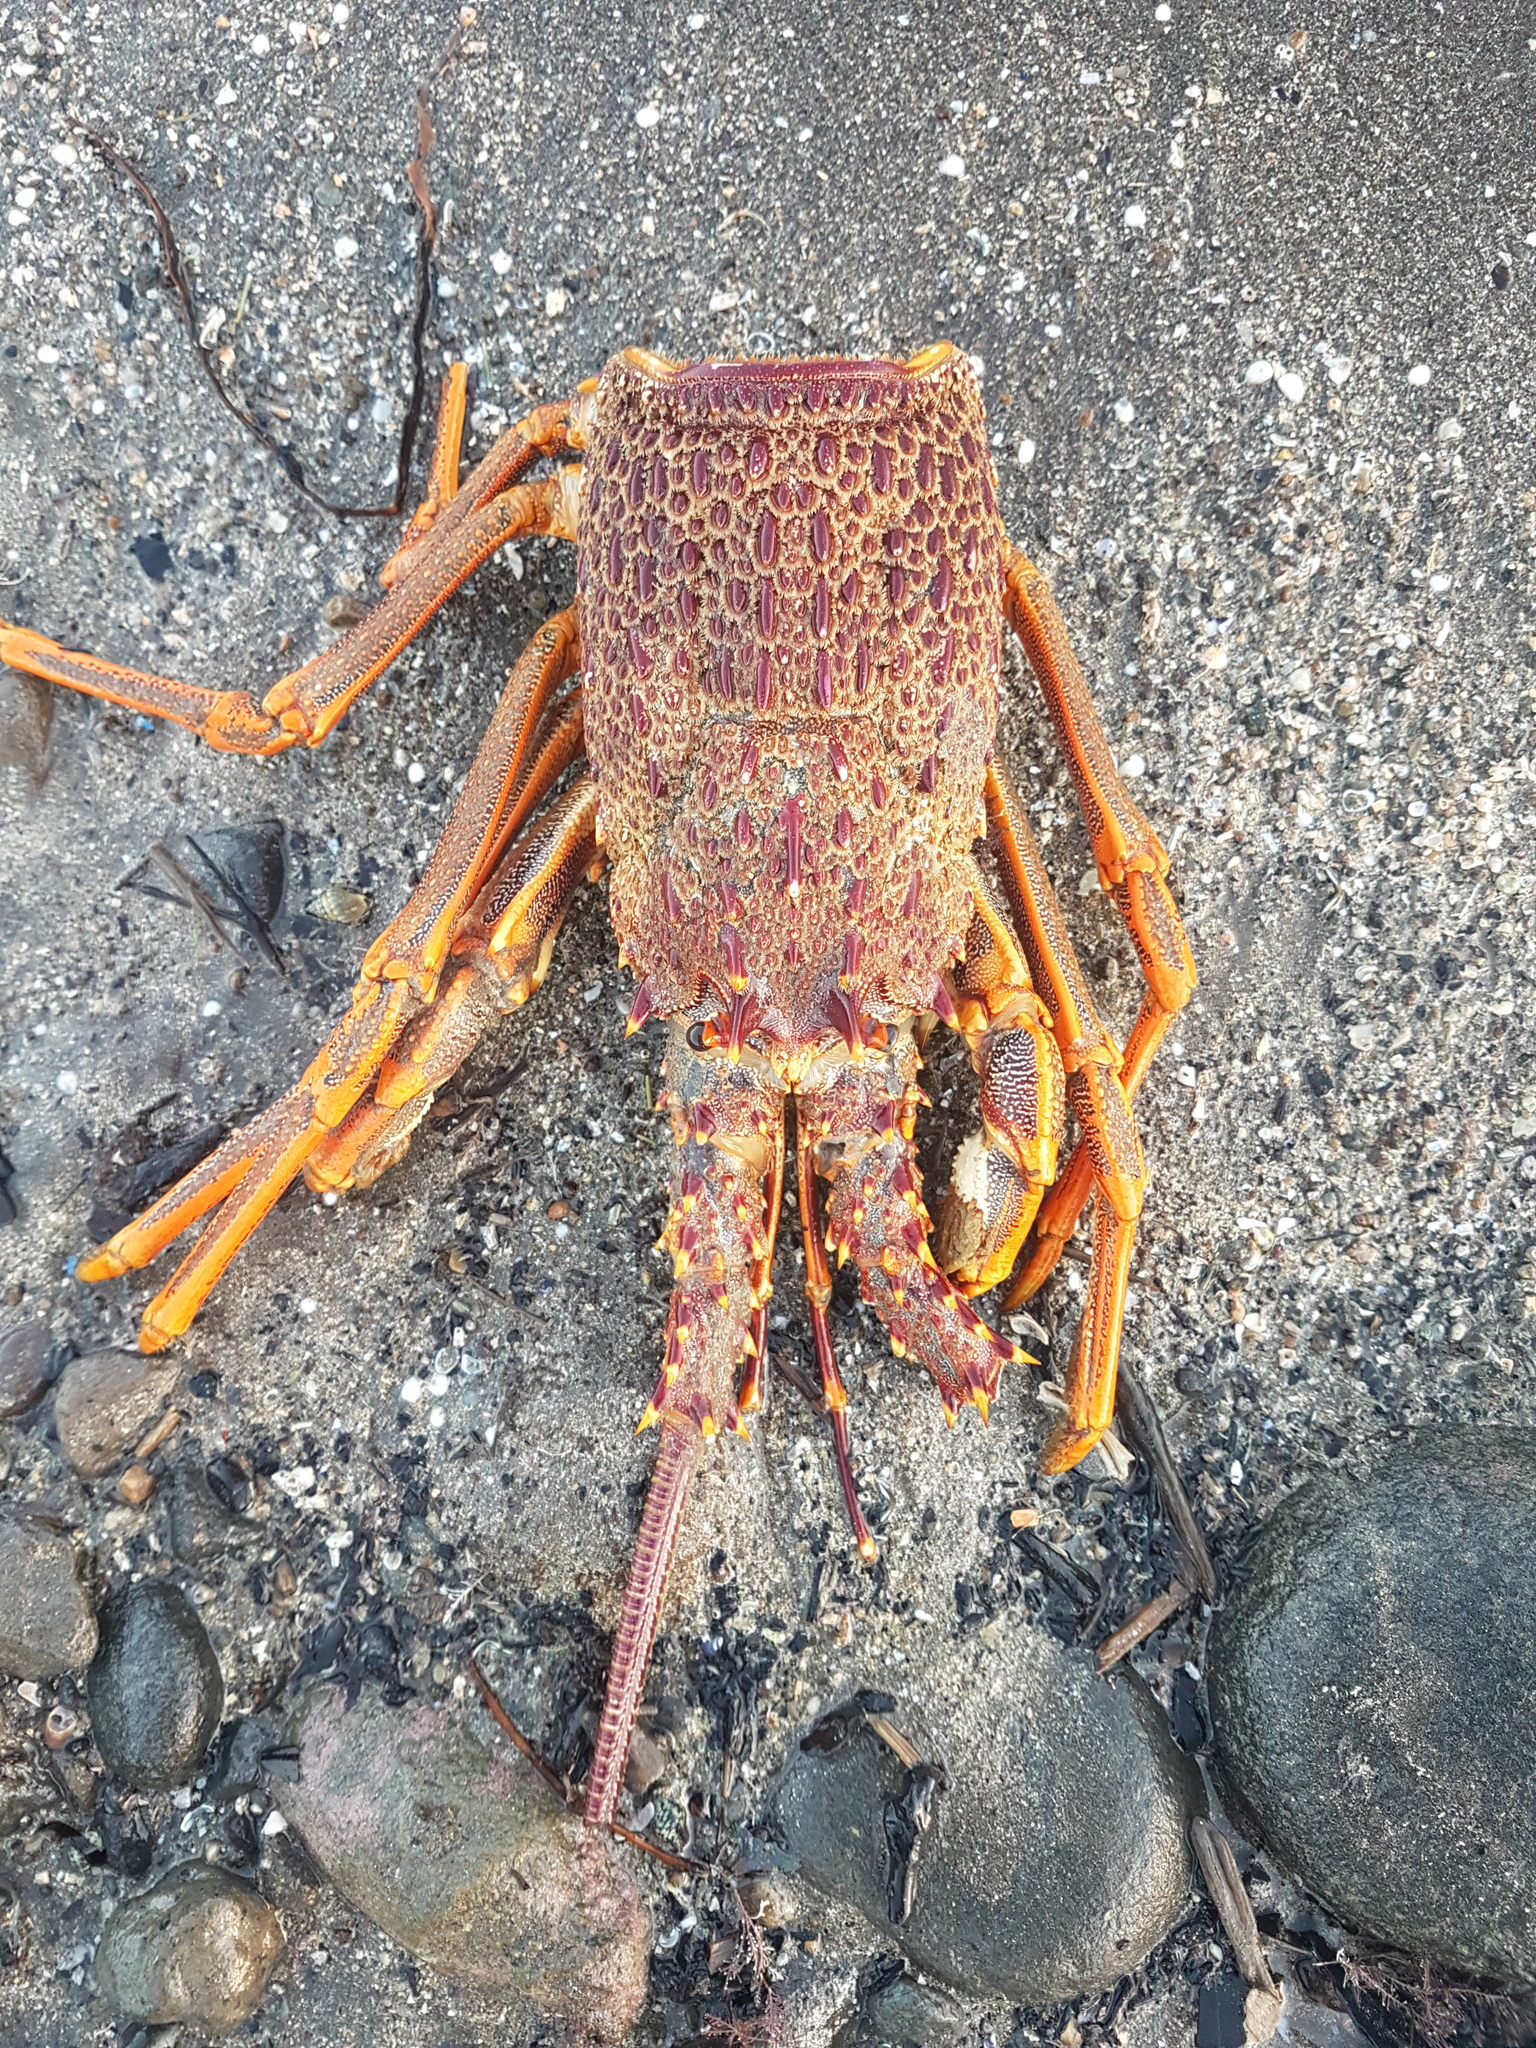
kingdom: Animalia
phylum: Arthropoda
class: Malacostraca
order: Decapoda
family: Palinuridae
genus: Jasus
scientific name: Jasus edwardsii
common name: Red rock lobster
